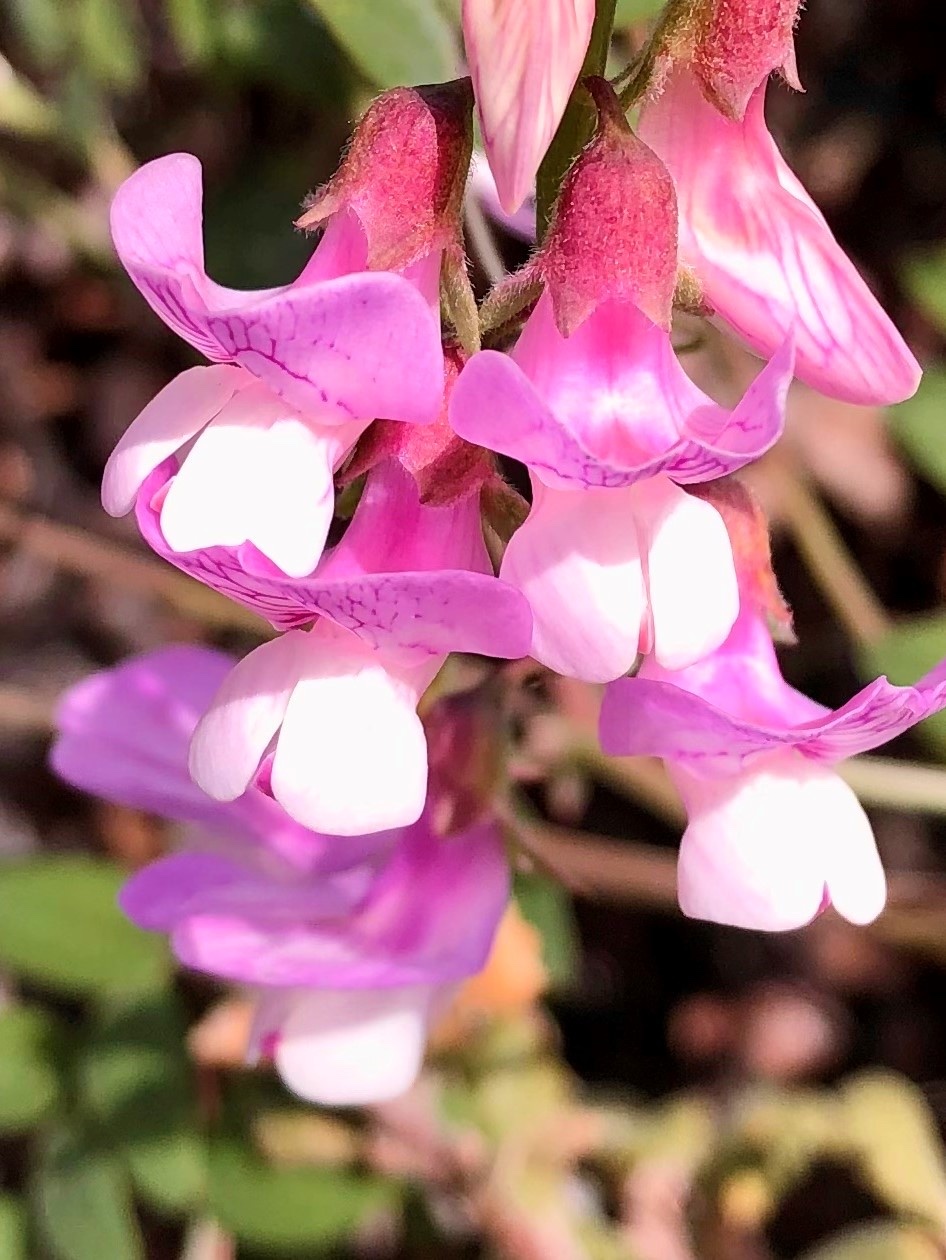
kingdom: Plantae
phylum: Tracheophyta
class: Magnoliopsida
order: Fabales
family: Fabaceae
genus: Lathyrus
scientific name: Lathyrus vestitus
